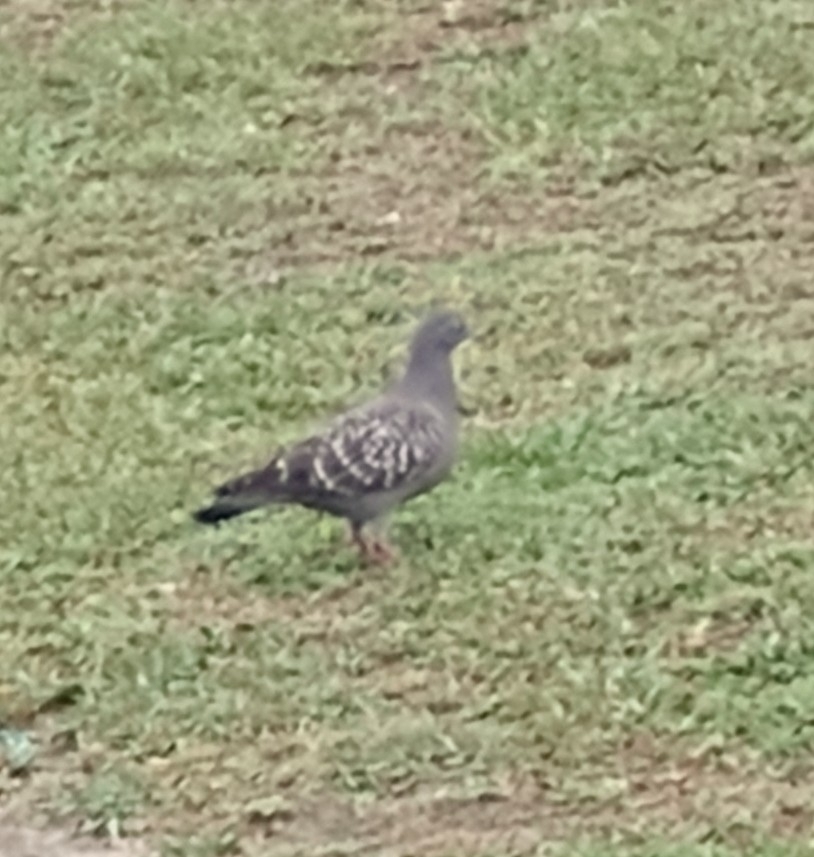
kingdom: Animalia
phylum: Chordata
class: Aves
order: Columbiformes
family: Columbidae
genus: Patagioenas
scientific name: Patagioenas maculosa
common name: Spot-winged pigeon
